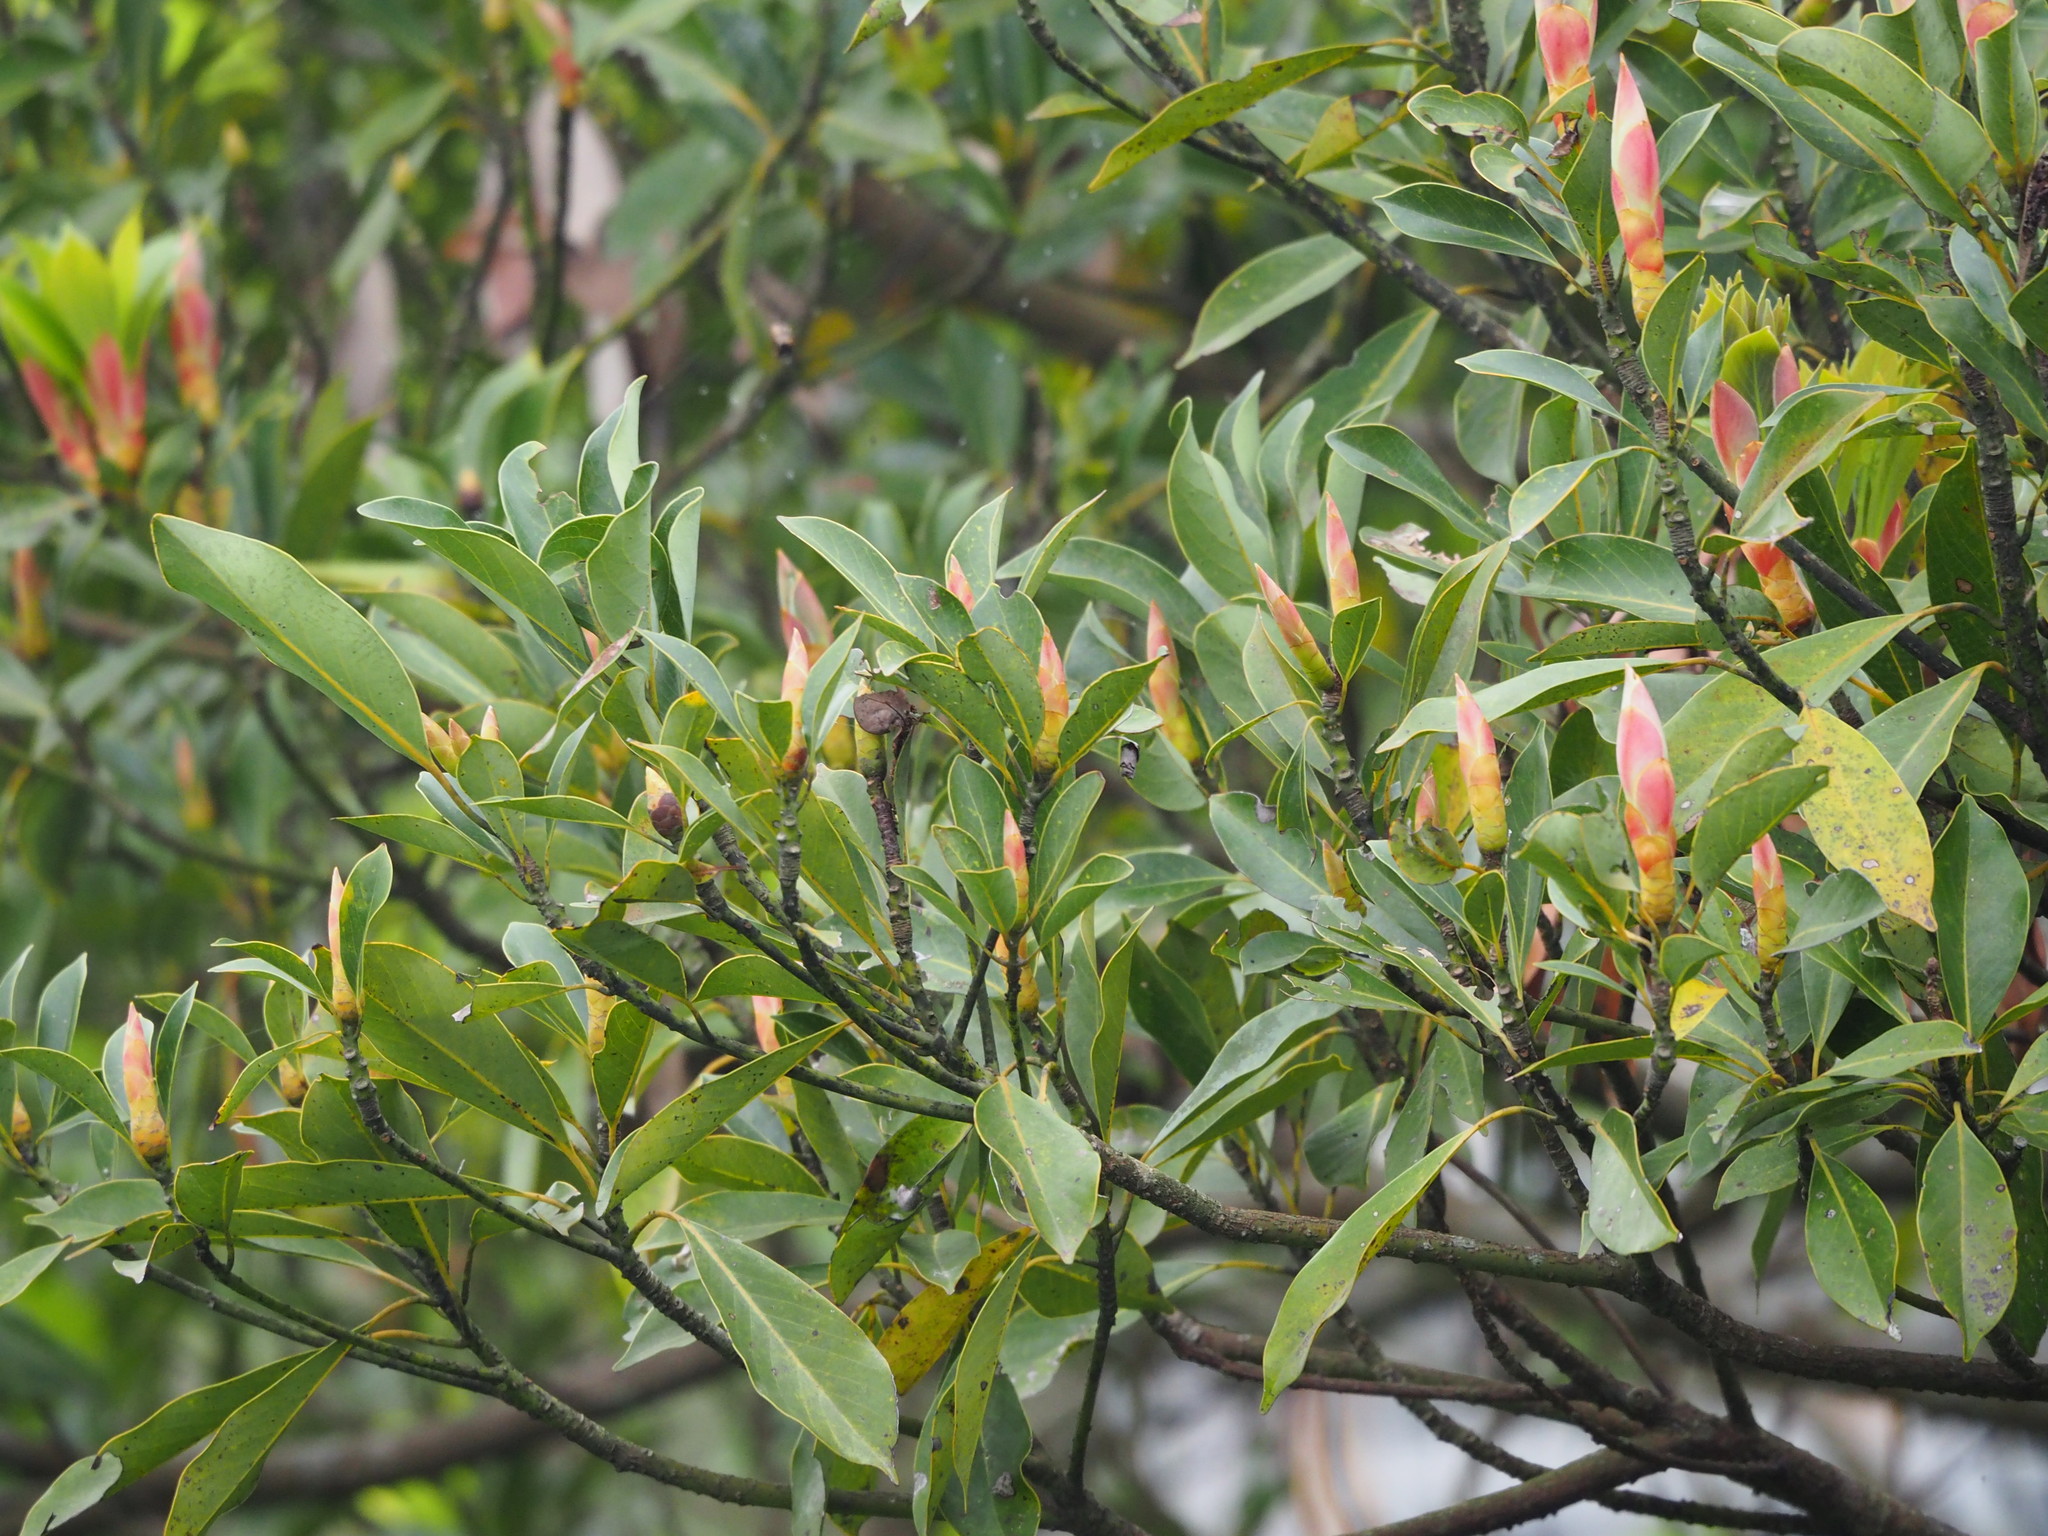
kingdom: Plantae
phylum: Tracheophyta
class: Magnoliopsida
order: Laurales
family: Lauraceae
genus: Machilus
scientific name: Machilus thunbergii
